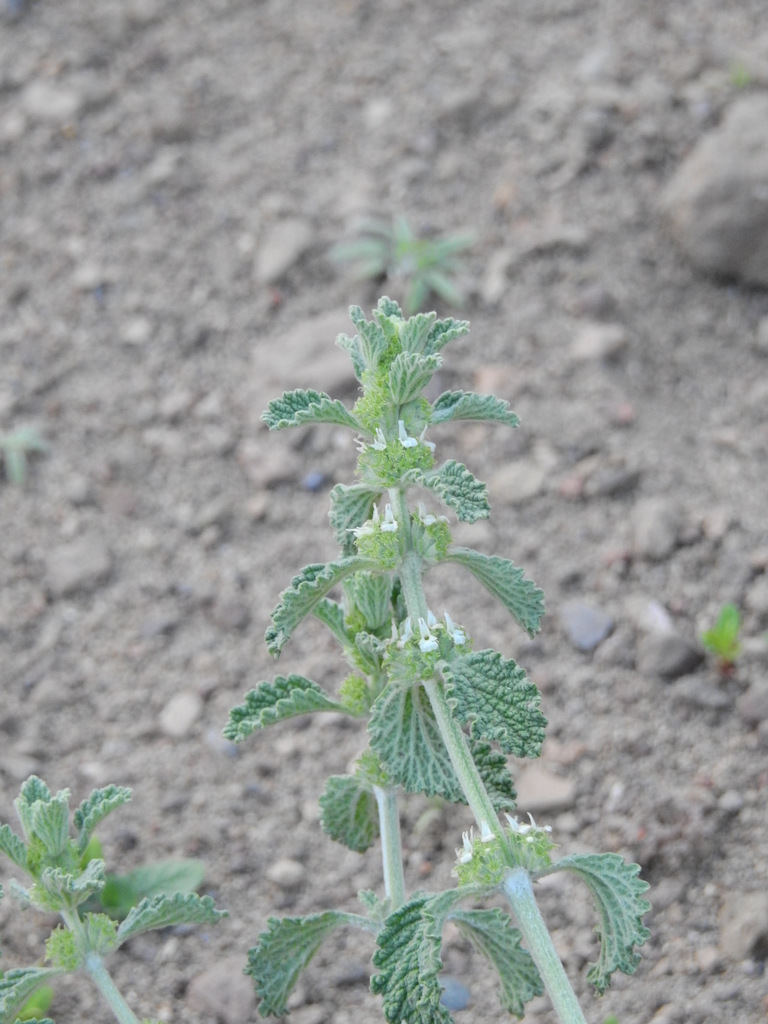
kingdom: Plantae
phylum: Tracheophyta
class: Magnoliopsida
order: Lamiales
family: Lamiaceae
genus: Marrubium
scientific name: Marrubium vulgare
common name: Horehound
